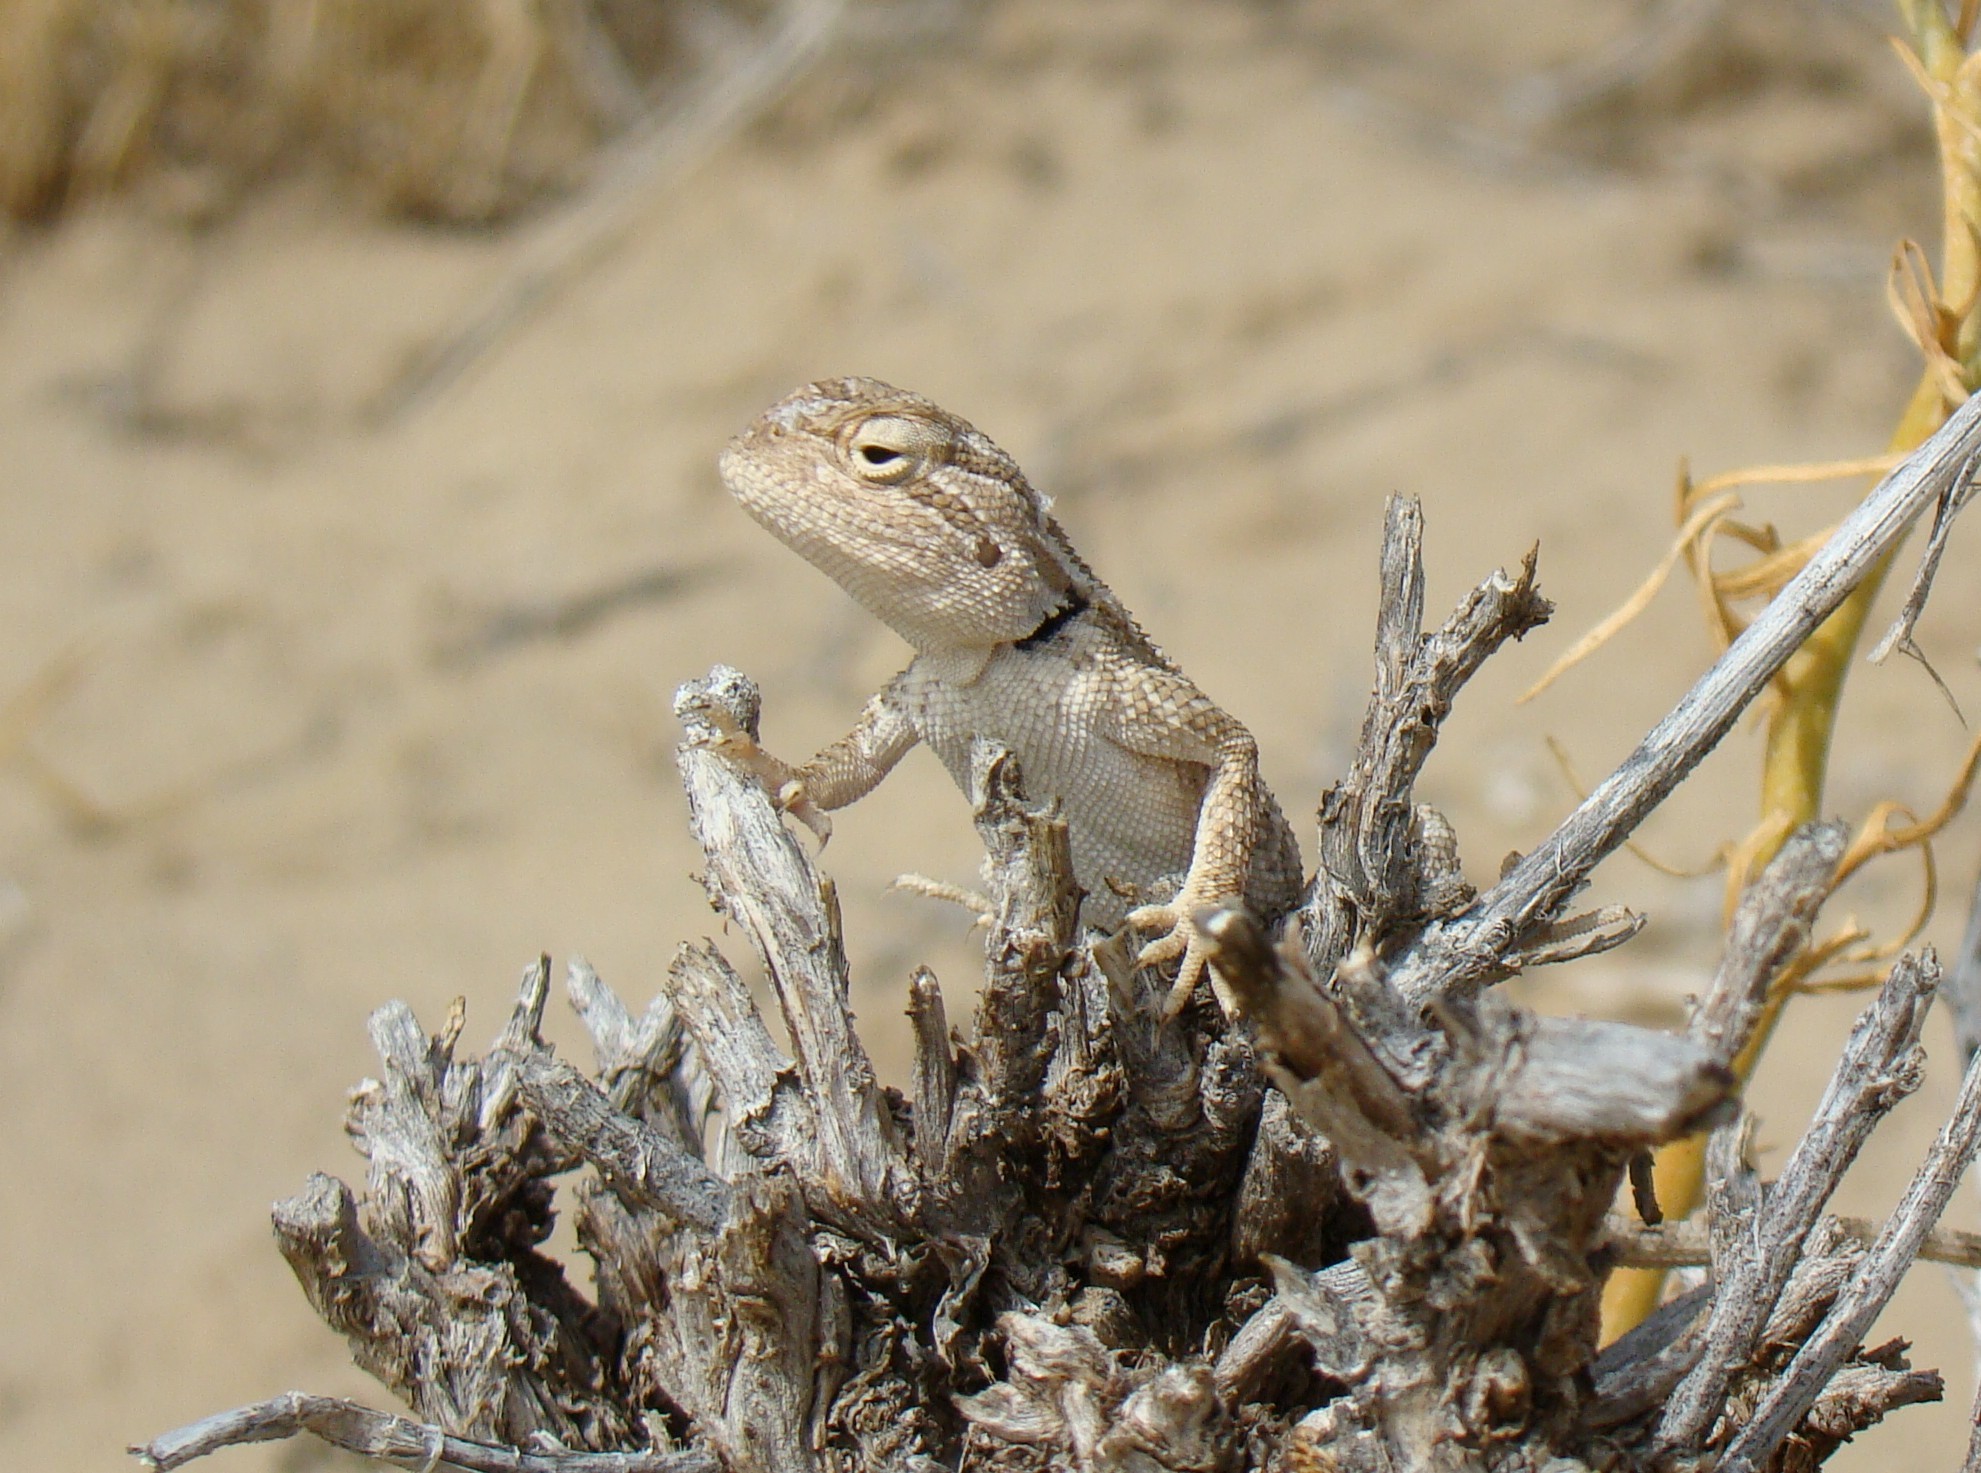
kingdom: Animalia
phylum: Chordata
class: Squamata
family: Agamidae
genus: Trapelus
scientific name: Trapelus sanguinolentus
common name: Steppe agama
